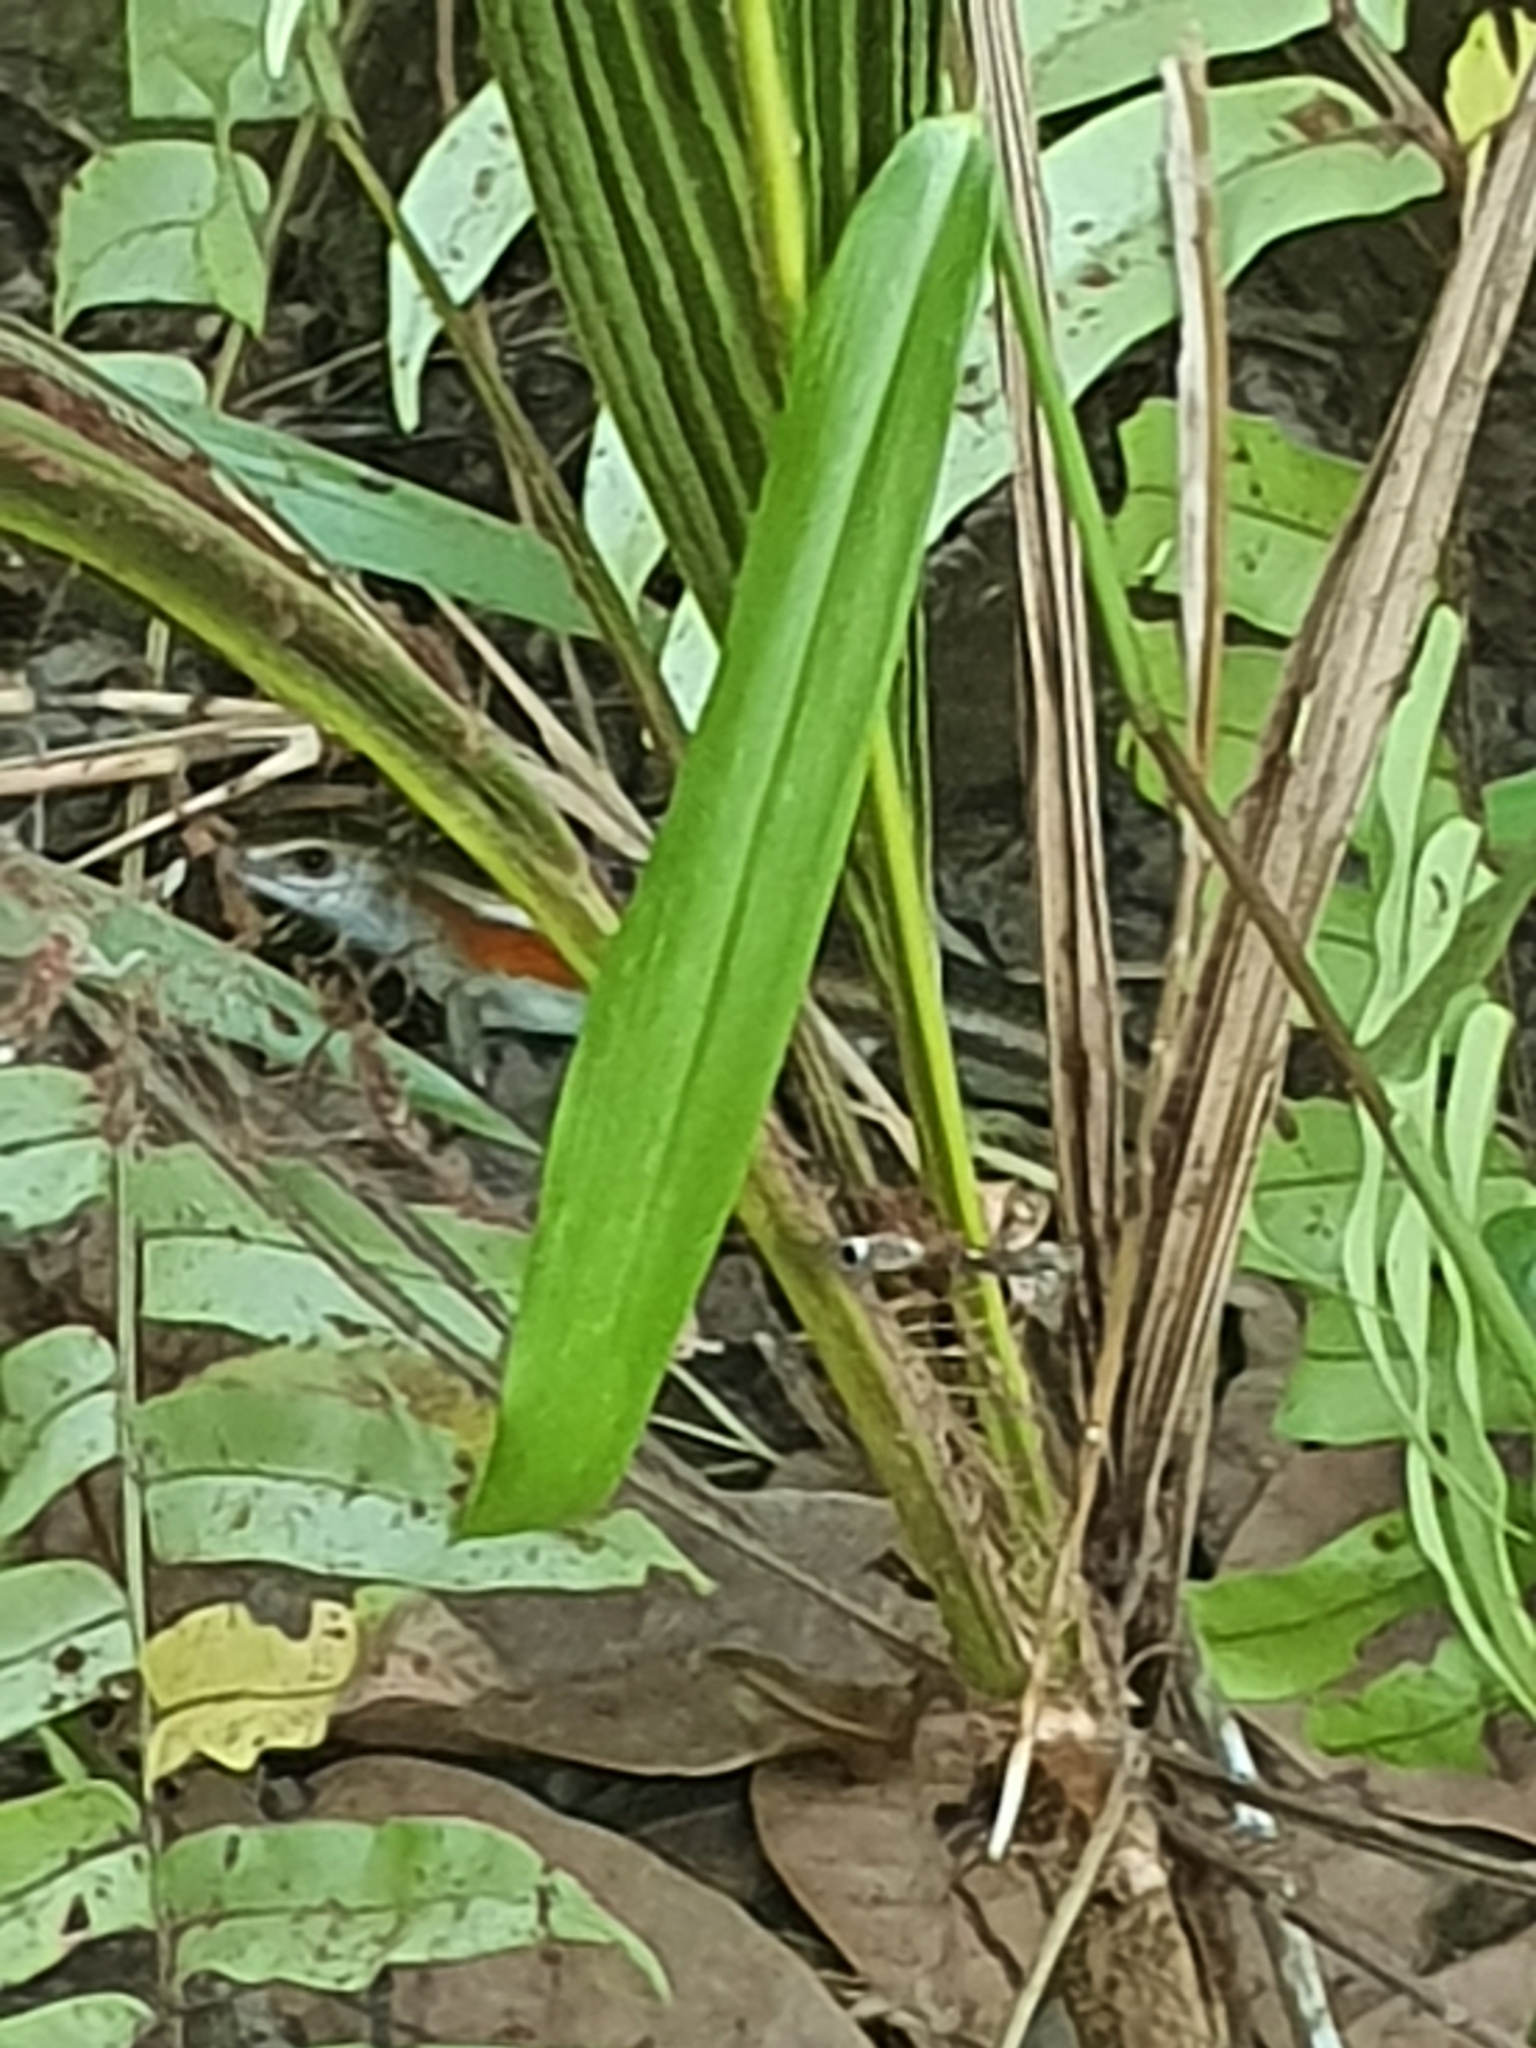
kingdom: Animalia
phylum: Chordata
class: Squamata
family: Scincidae
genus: Eutropis
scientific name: Eutropis multifasciata
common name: Common mabuya
